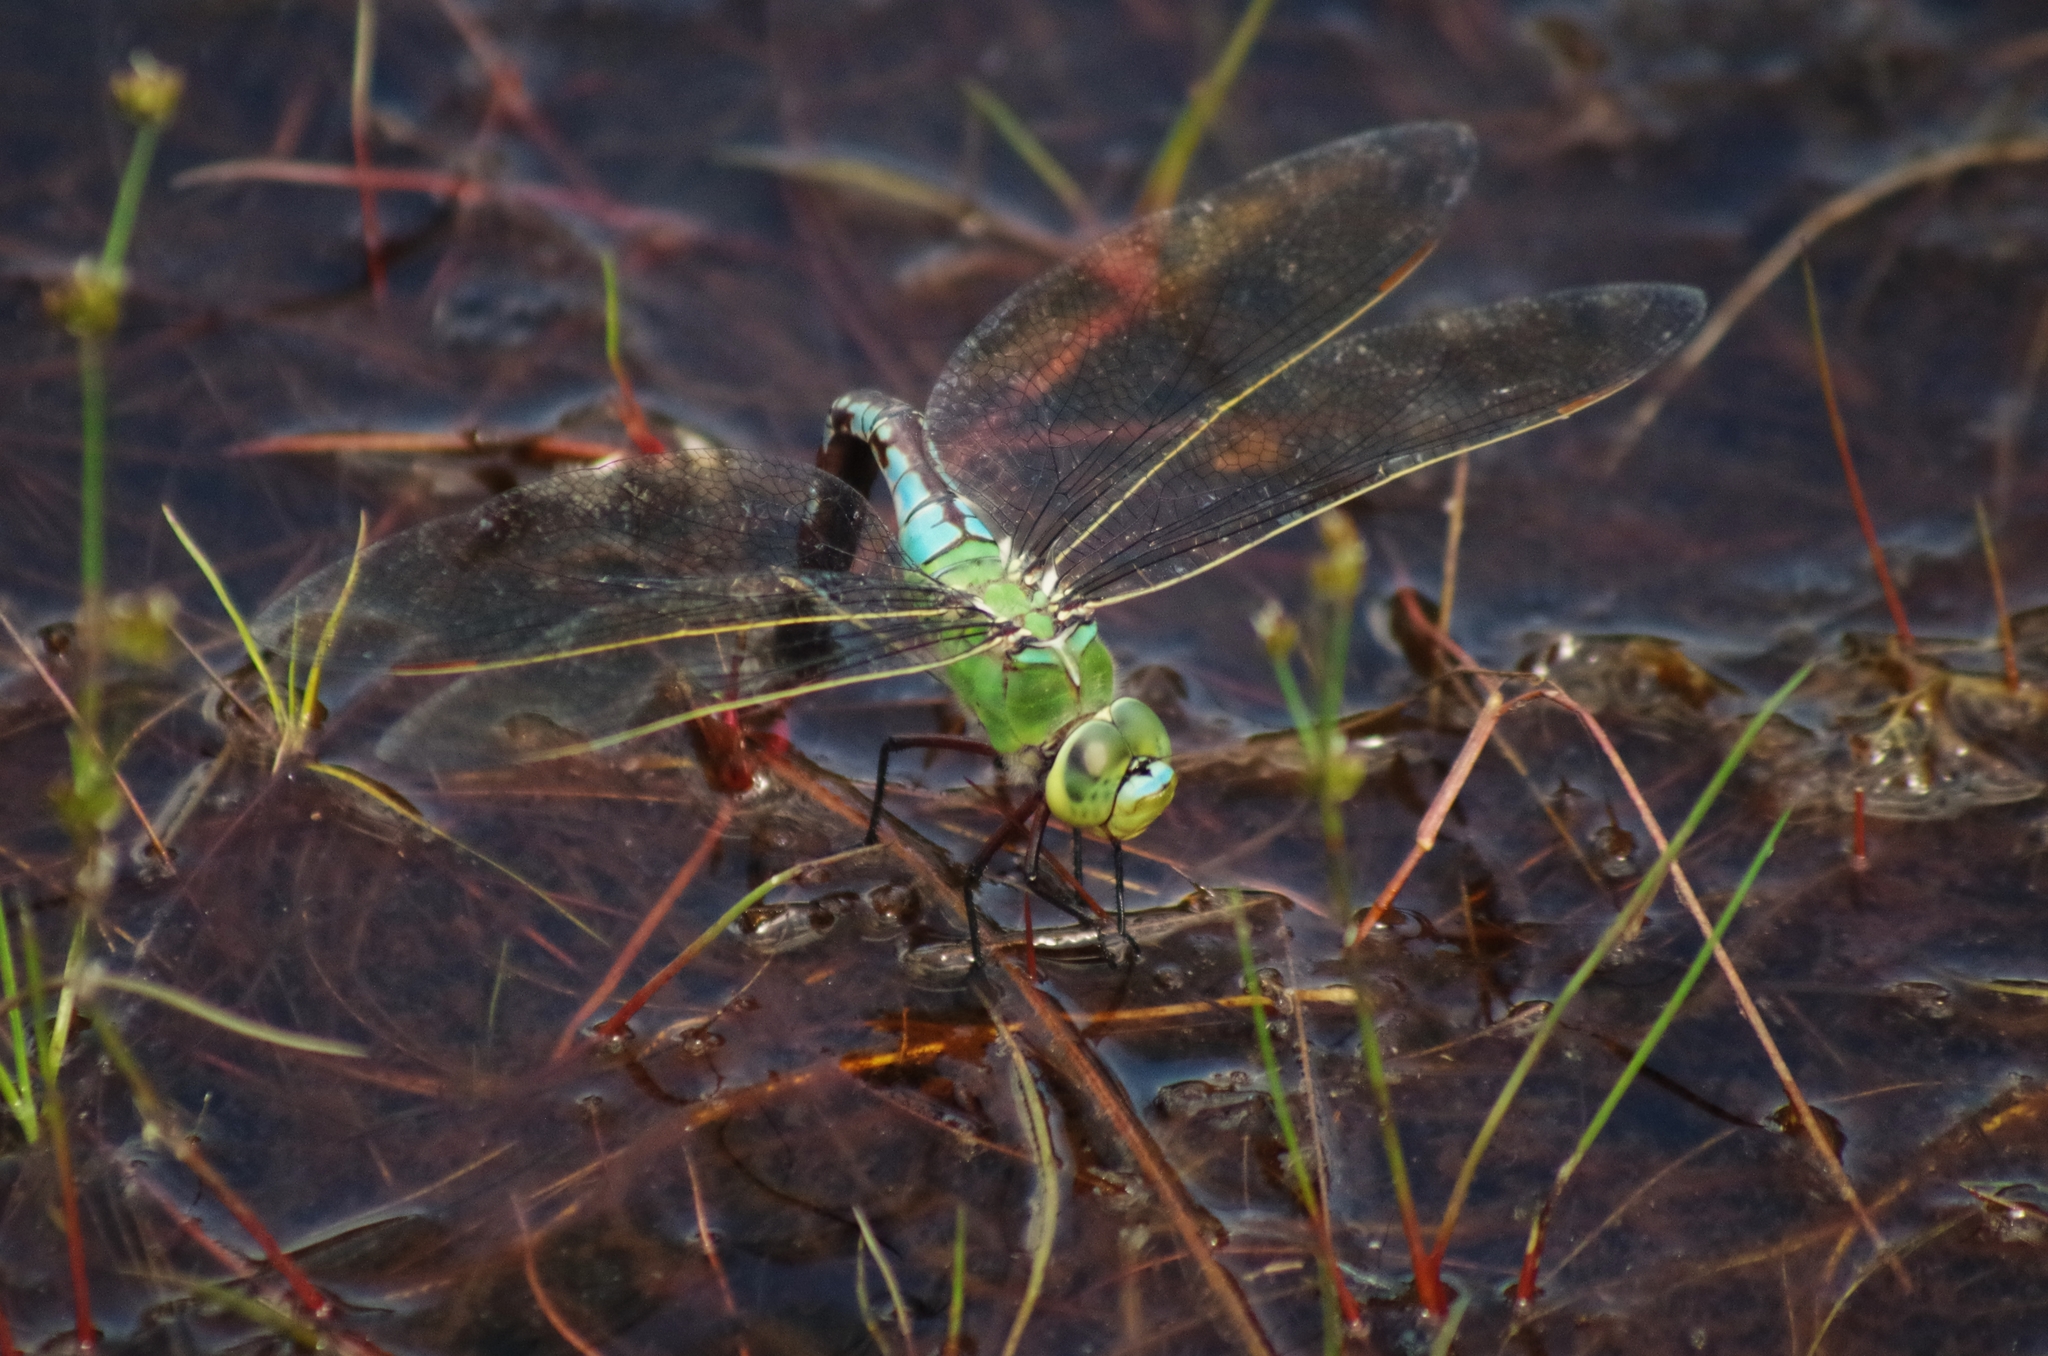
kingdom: Animalia
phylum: Arthropoda
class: Insecta
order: Odonata
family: Aeshnidae
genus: Anax
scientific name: Anax imperator
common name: Emperor dragonfly
